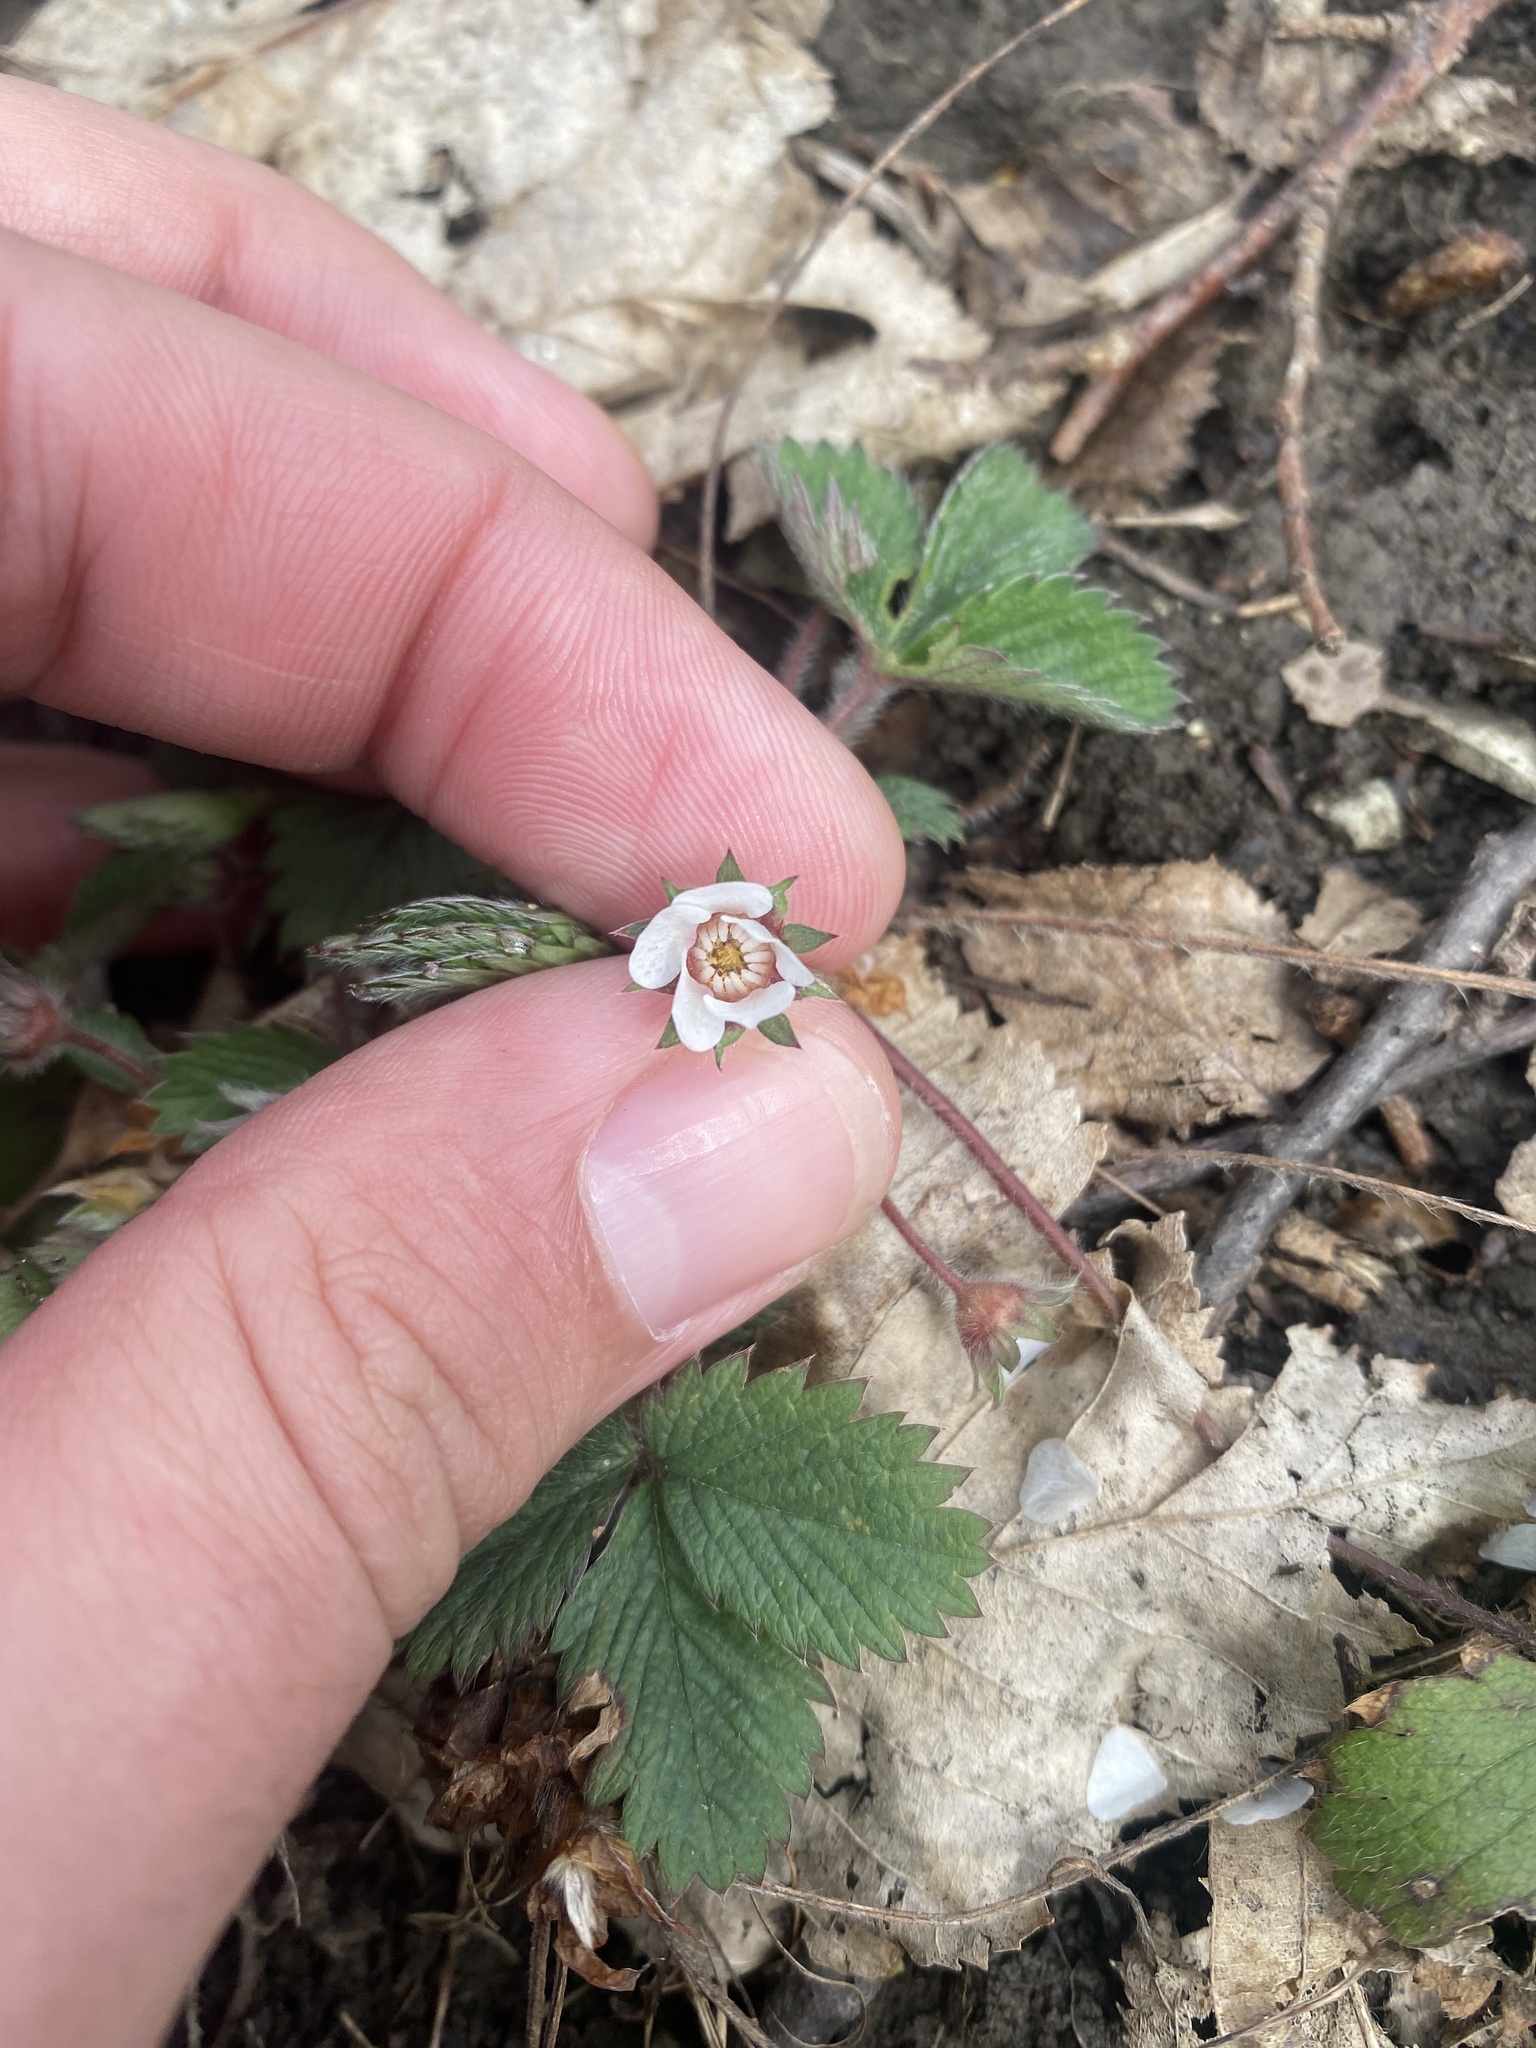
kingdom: Plantae
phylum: Tracheophyta
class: Magnoliopsida
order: Rosales
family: Rosaceae
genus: Potentilla
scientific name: Potentilla micrantha
